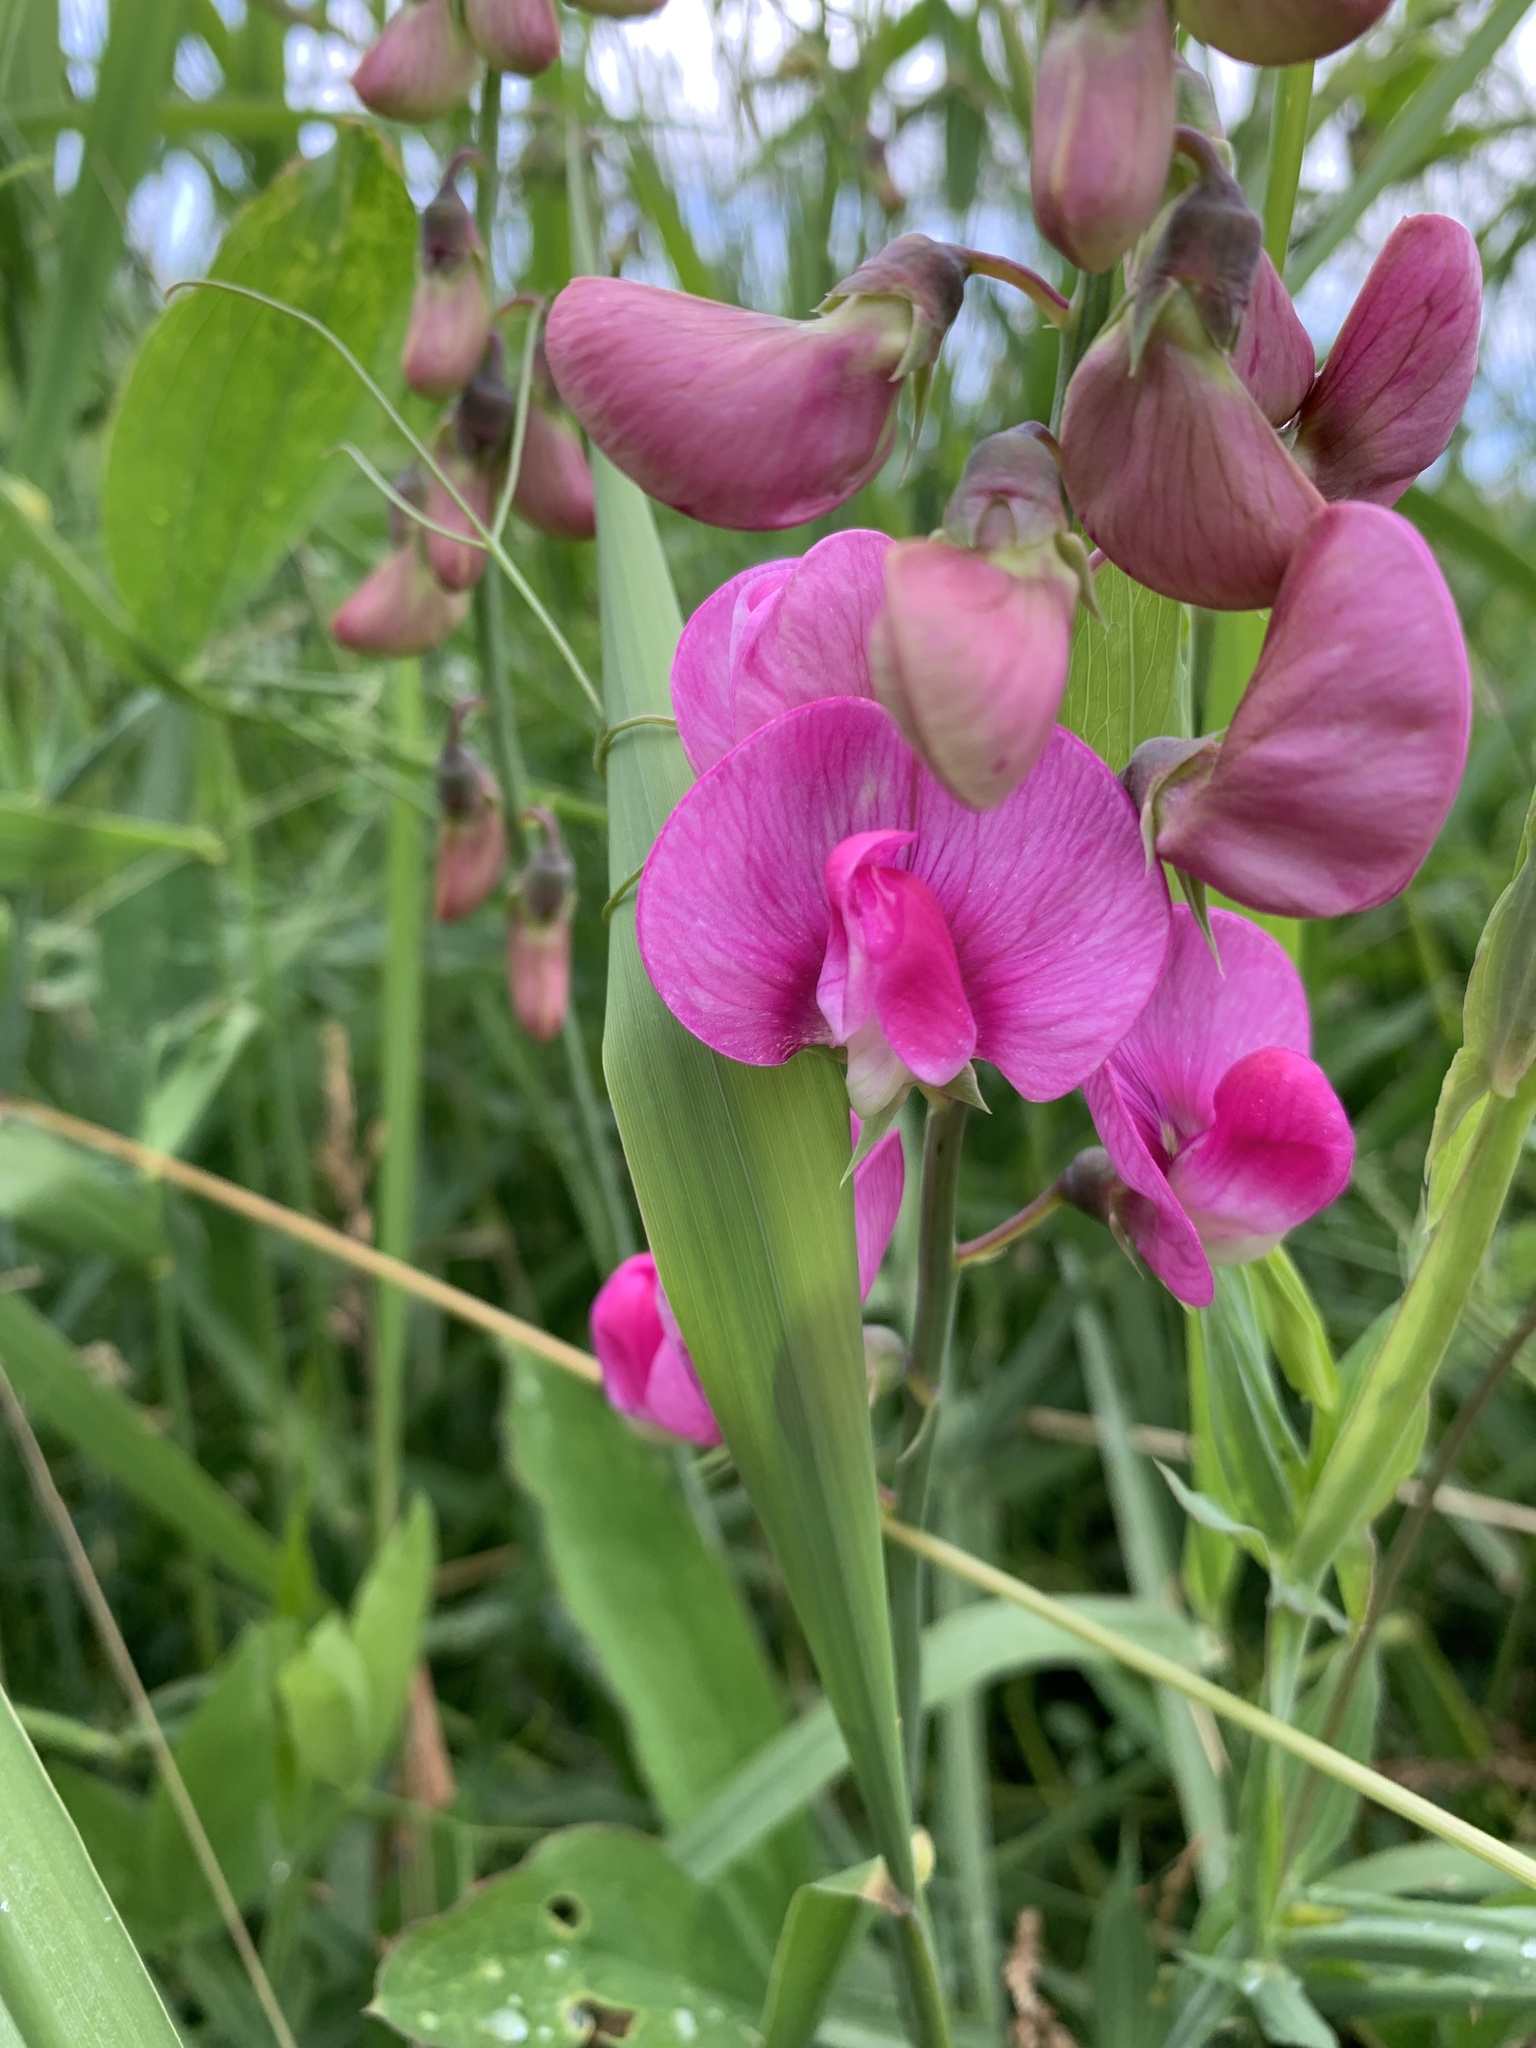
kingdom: Plantae
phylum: Tracheophyta
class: Magnoliopsida
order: Fabales
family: Fabaceae
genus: Lathyrus
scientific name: Lathyrus latifolius
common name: Perennial pea
